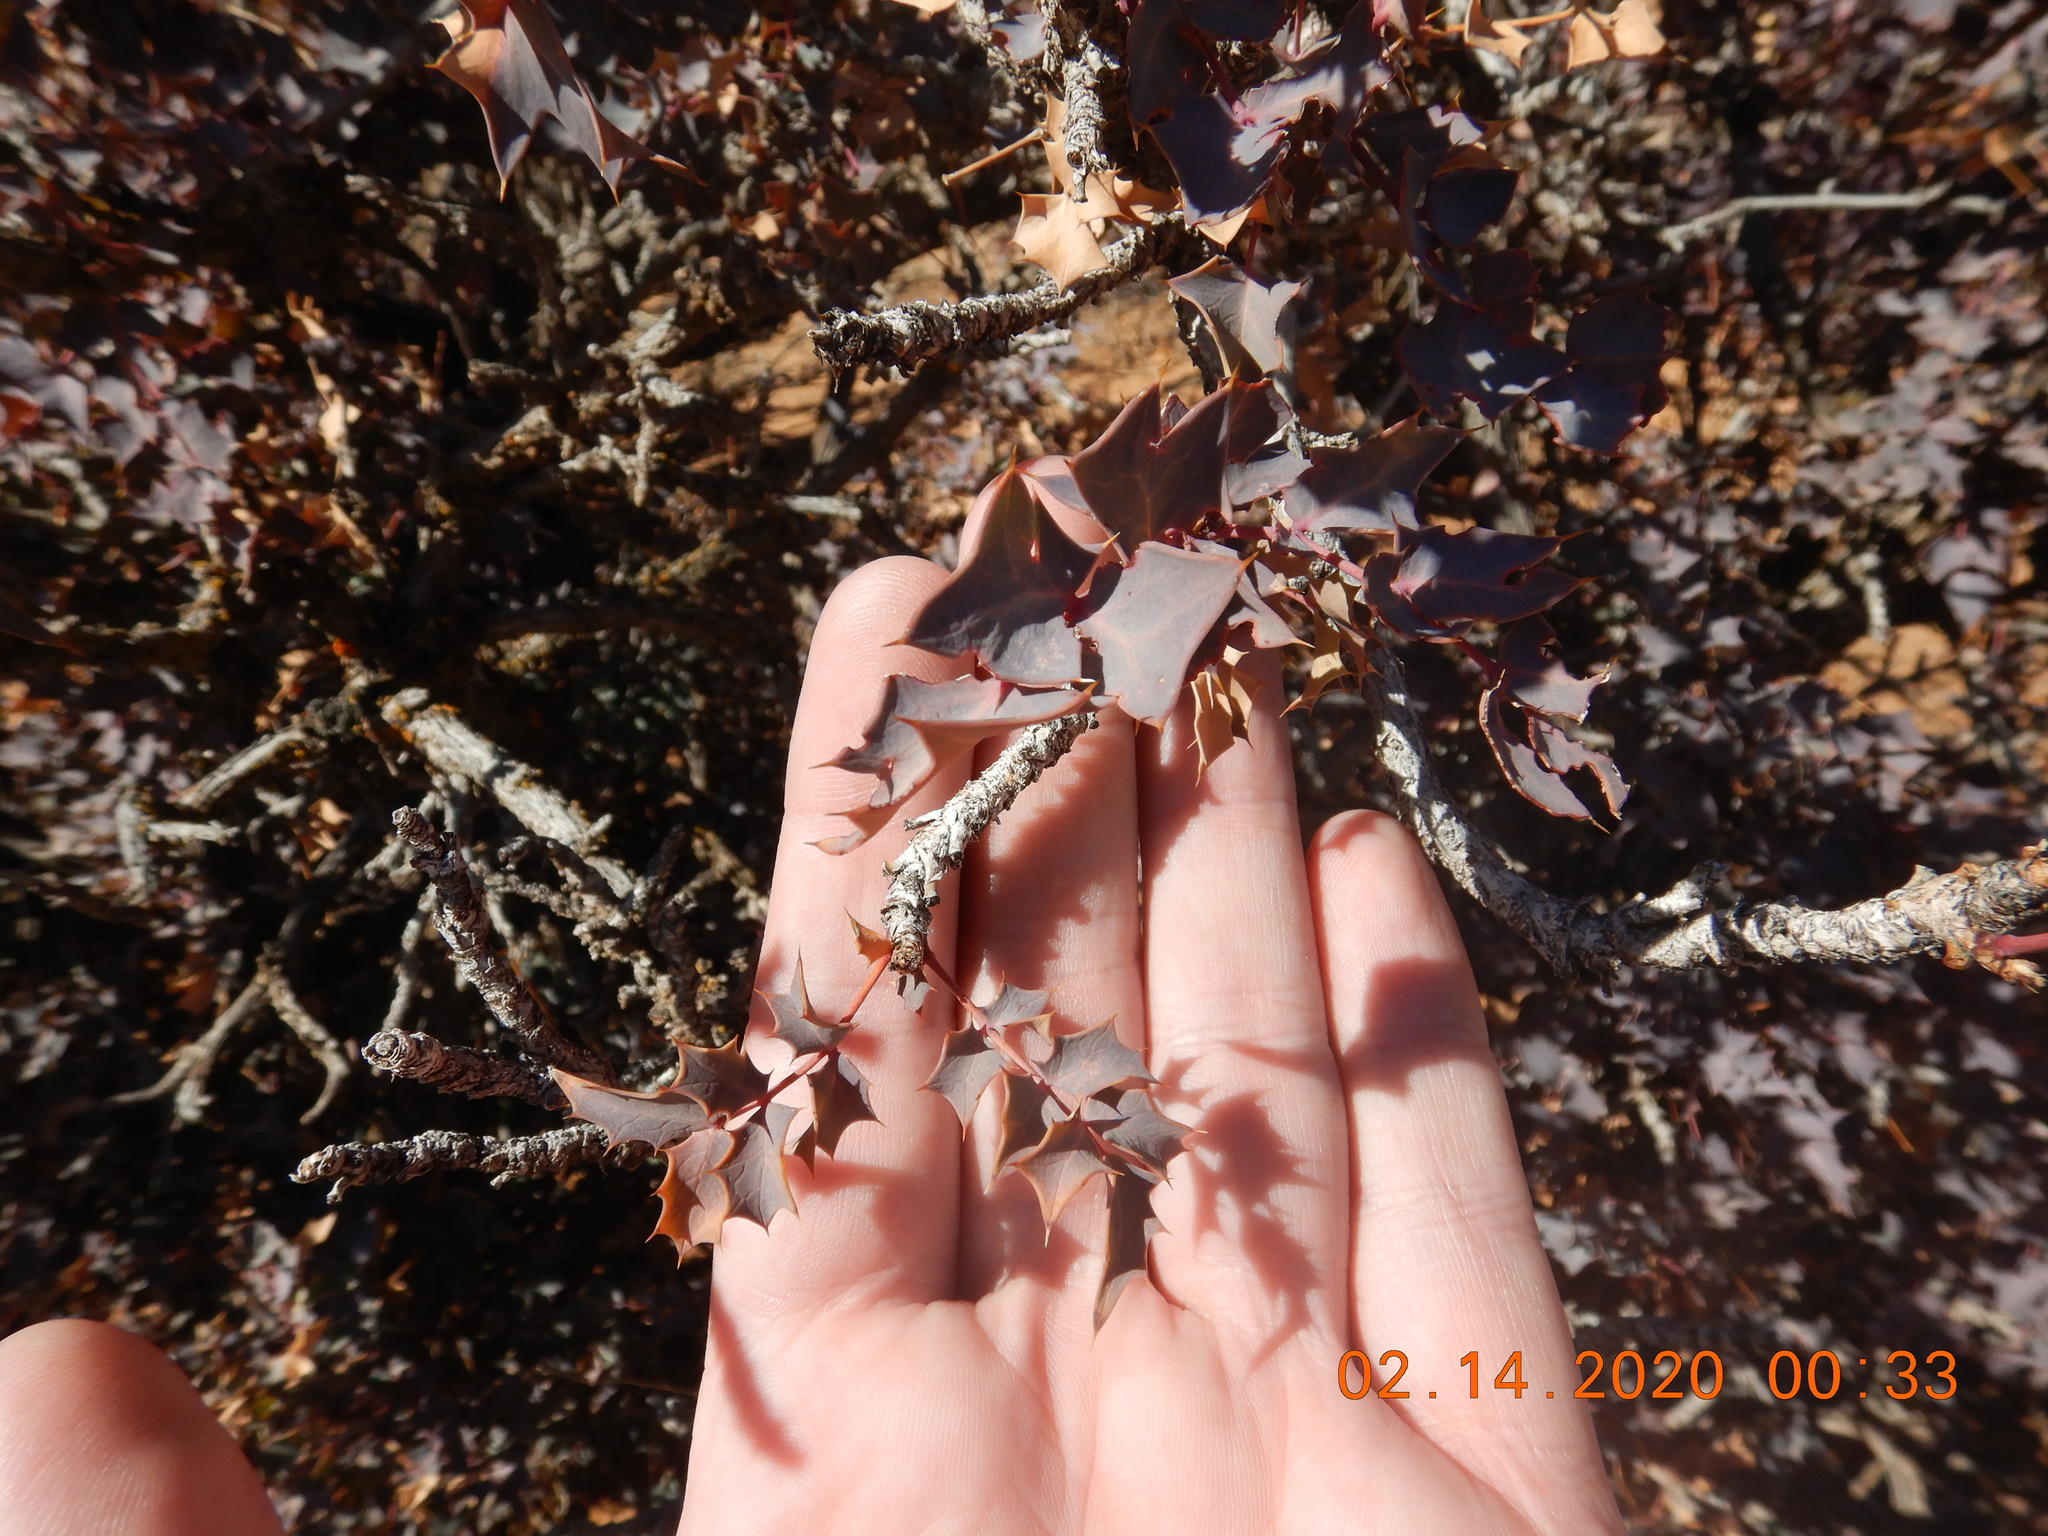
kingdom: Plantae
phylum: Tracheophyta
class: Magnoliopsida
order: Ranunculales
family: Berberidaceae
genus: Alloberberis
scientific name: Alloberberis fremontii
